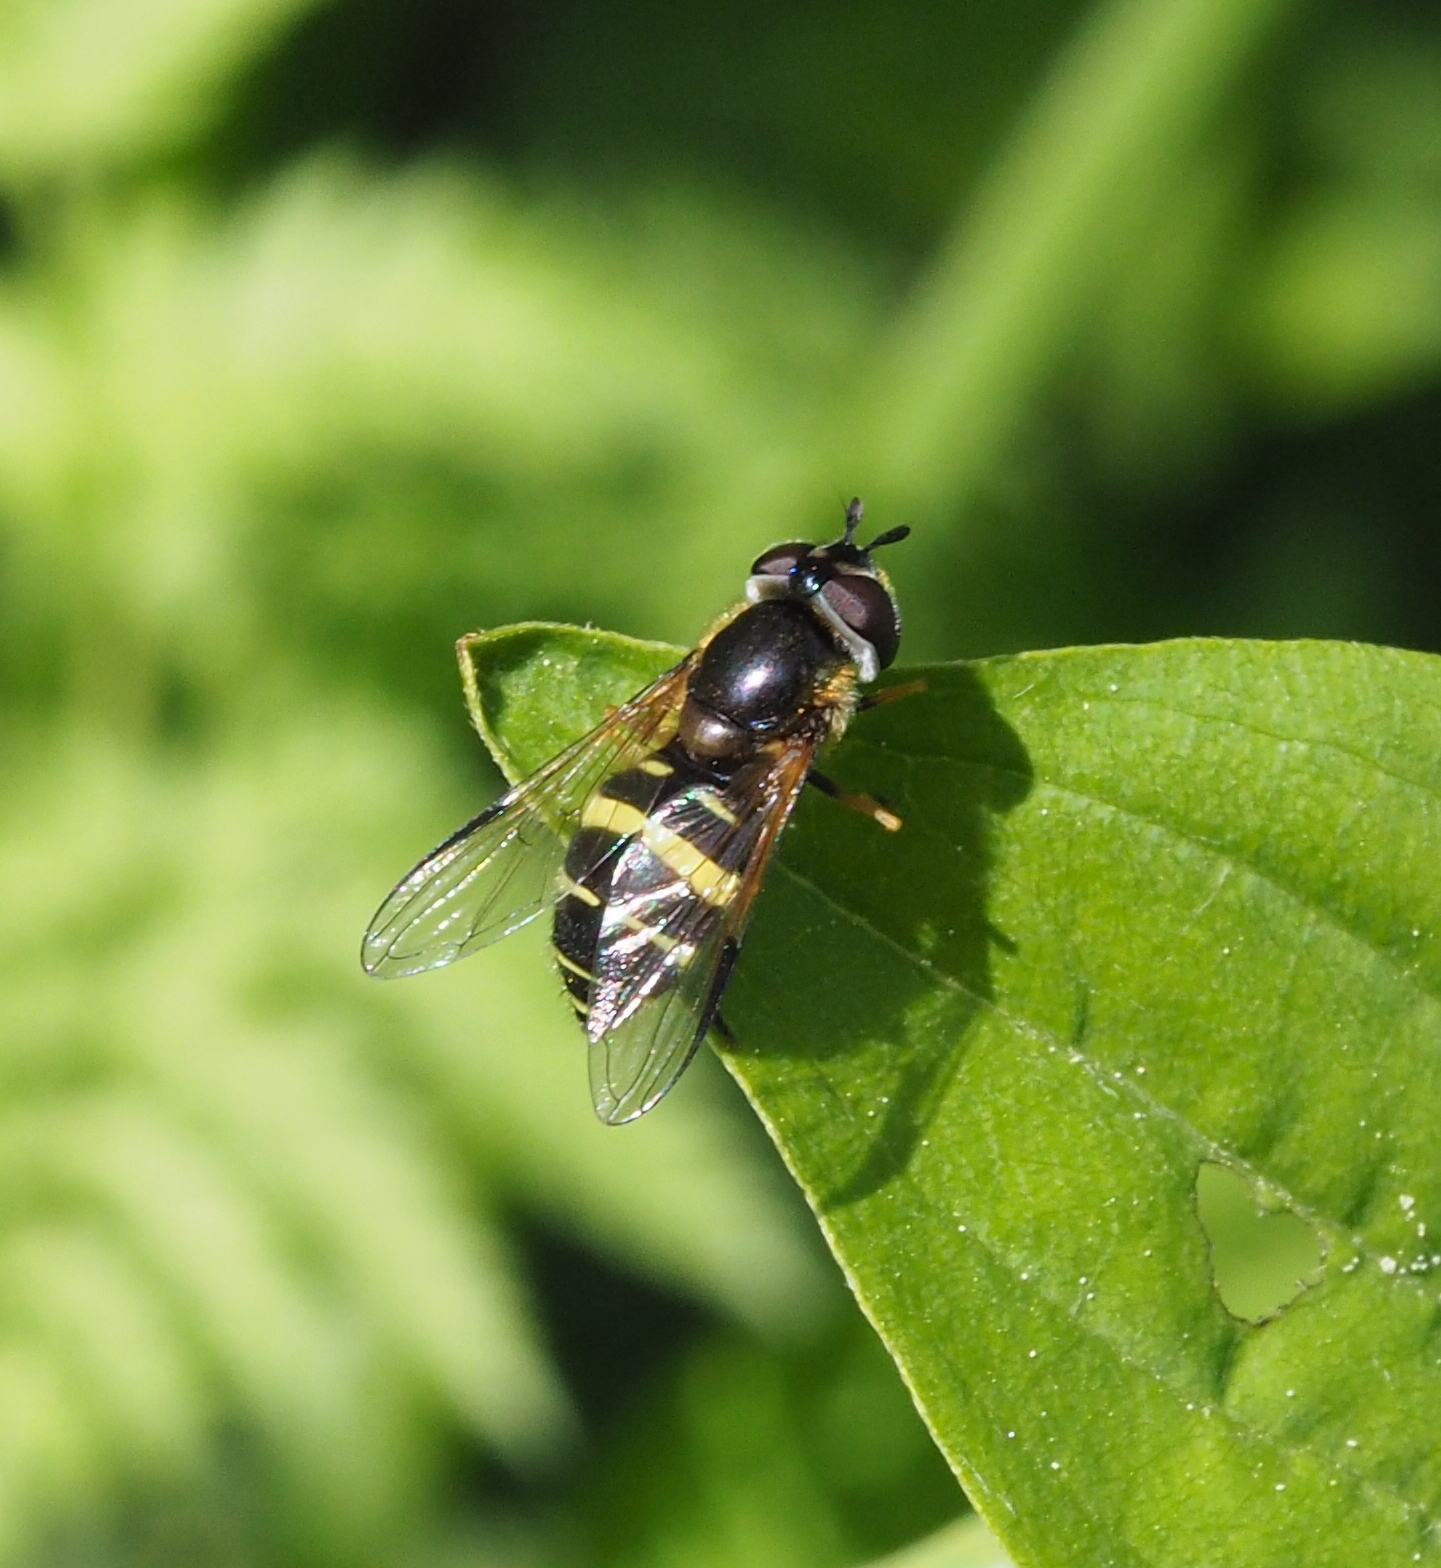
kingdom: Animalia
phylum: Arthropoda
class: Insecta
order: Diptera
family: Syrphidae
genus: Dasysyrphus
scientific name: Dasysyrphus tricinctus
